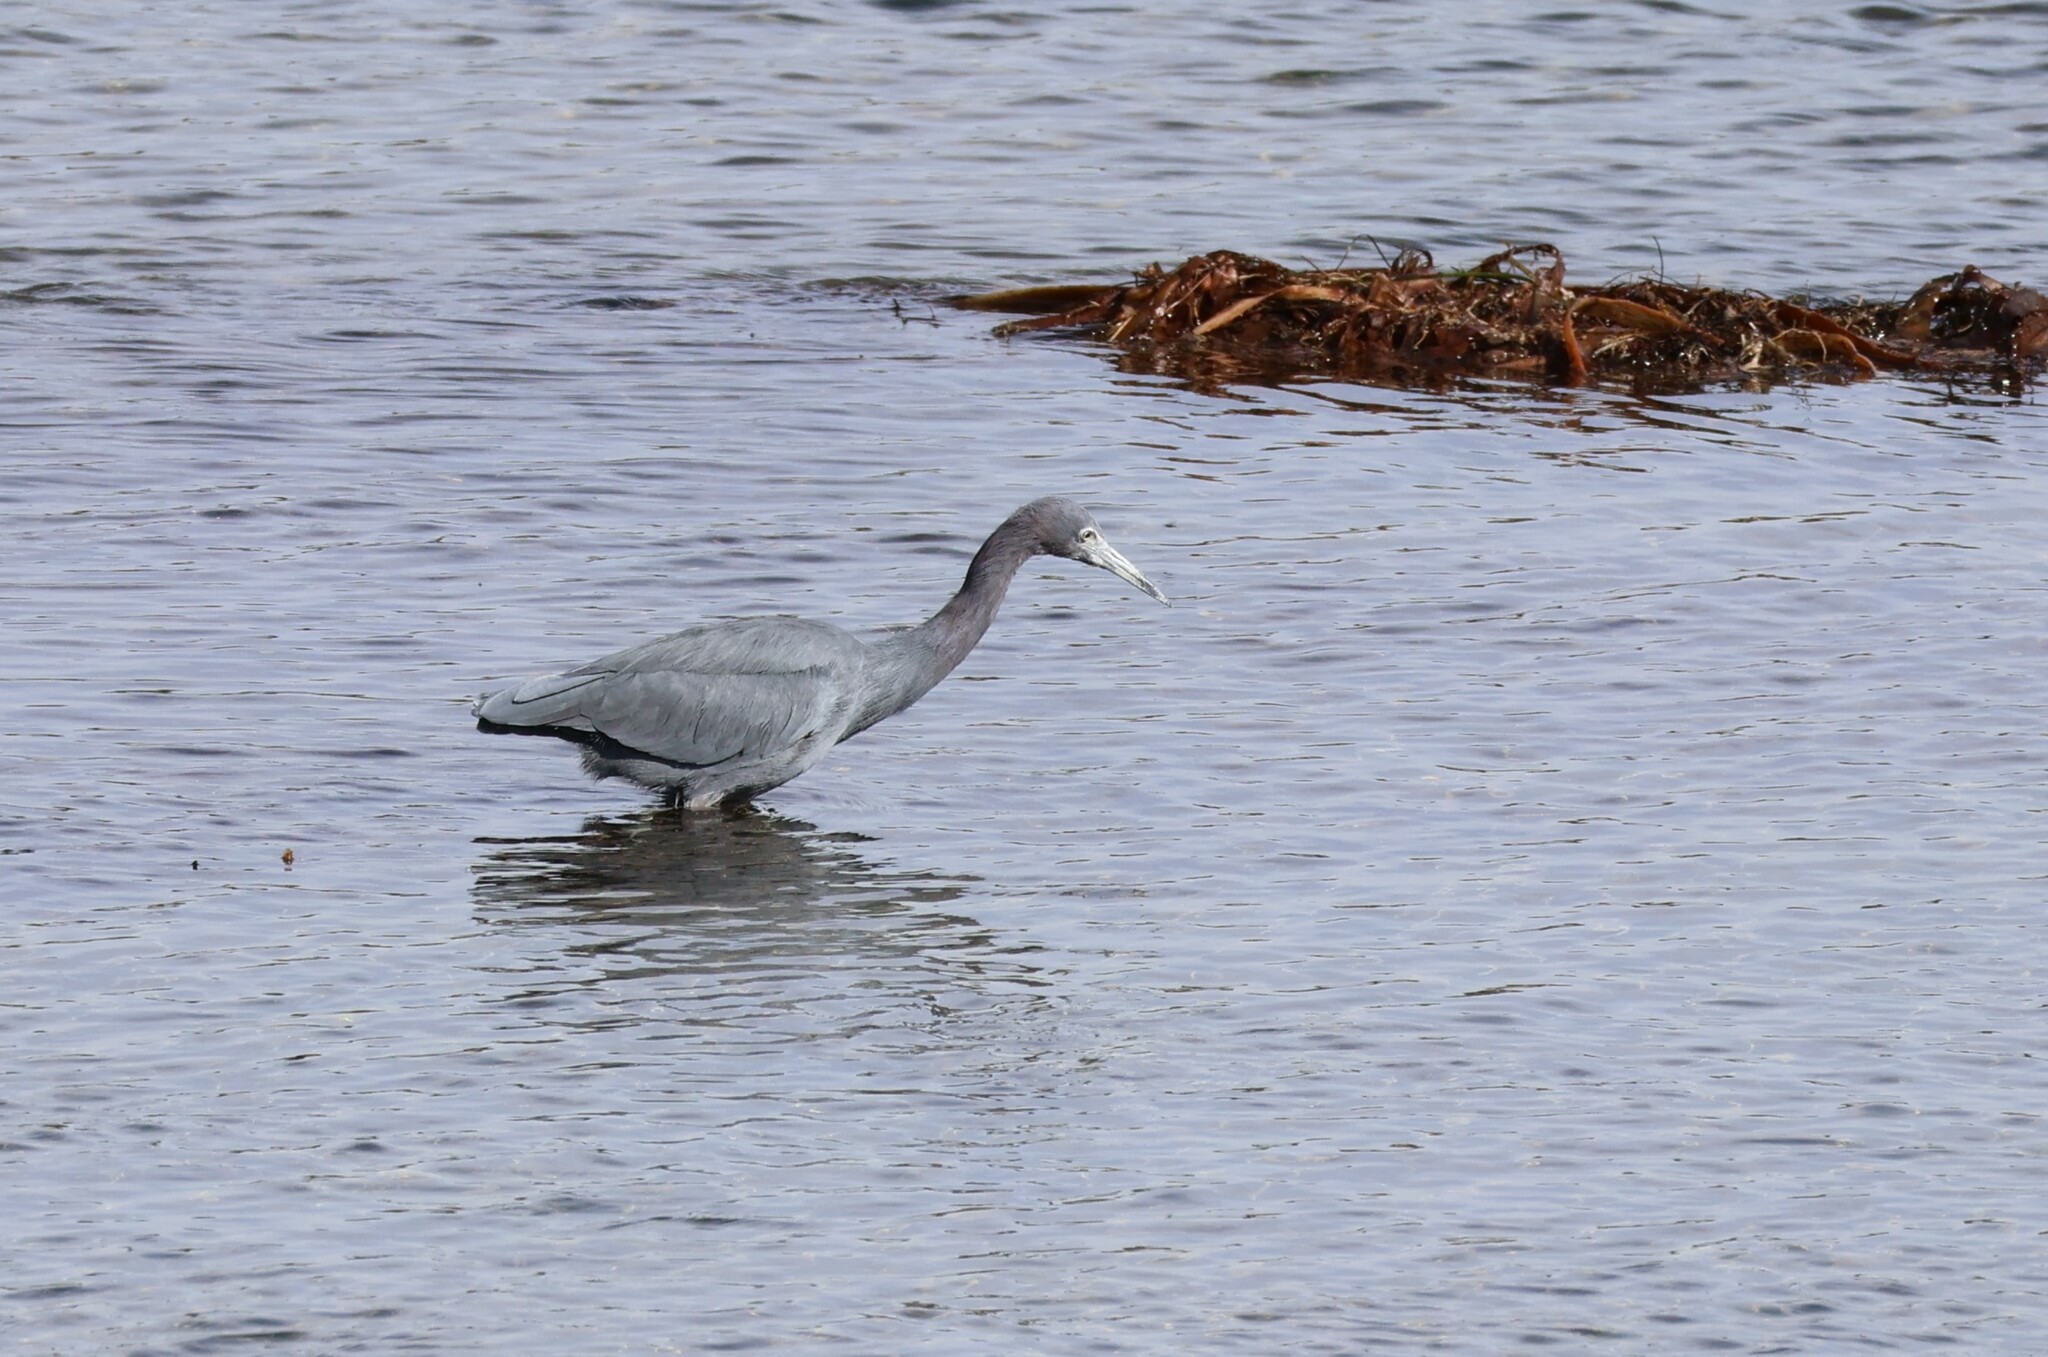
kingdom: Animalia
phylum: Chordata
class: Aves
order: Pelecaniformes
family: Ardeidae
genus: Egretta
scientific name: Egretta caerulea
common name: Little blue heron
